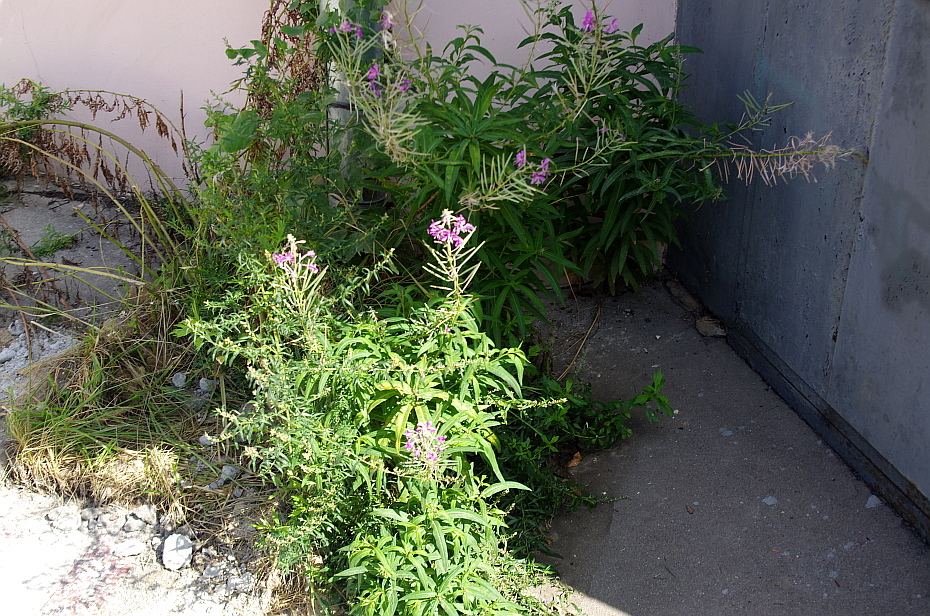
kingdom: Plantae
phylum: Tracheophyta
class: Magnoliopsida
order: Myrtales
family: Onagraceae
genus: Chamaenerion
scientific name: Chamaenerion angustifolium
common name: Fireweed
